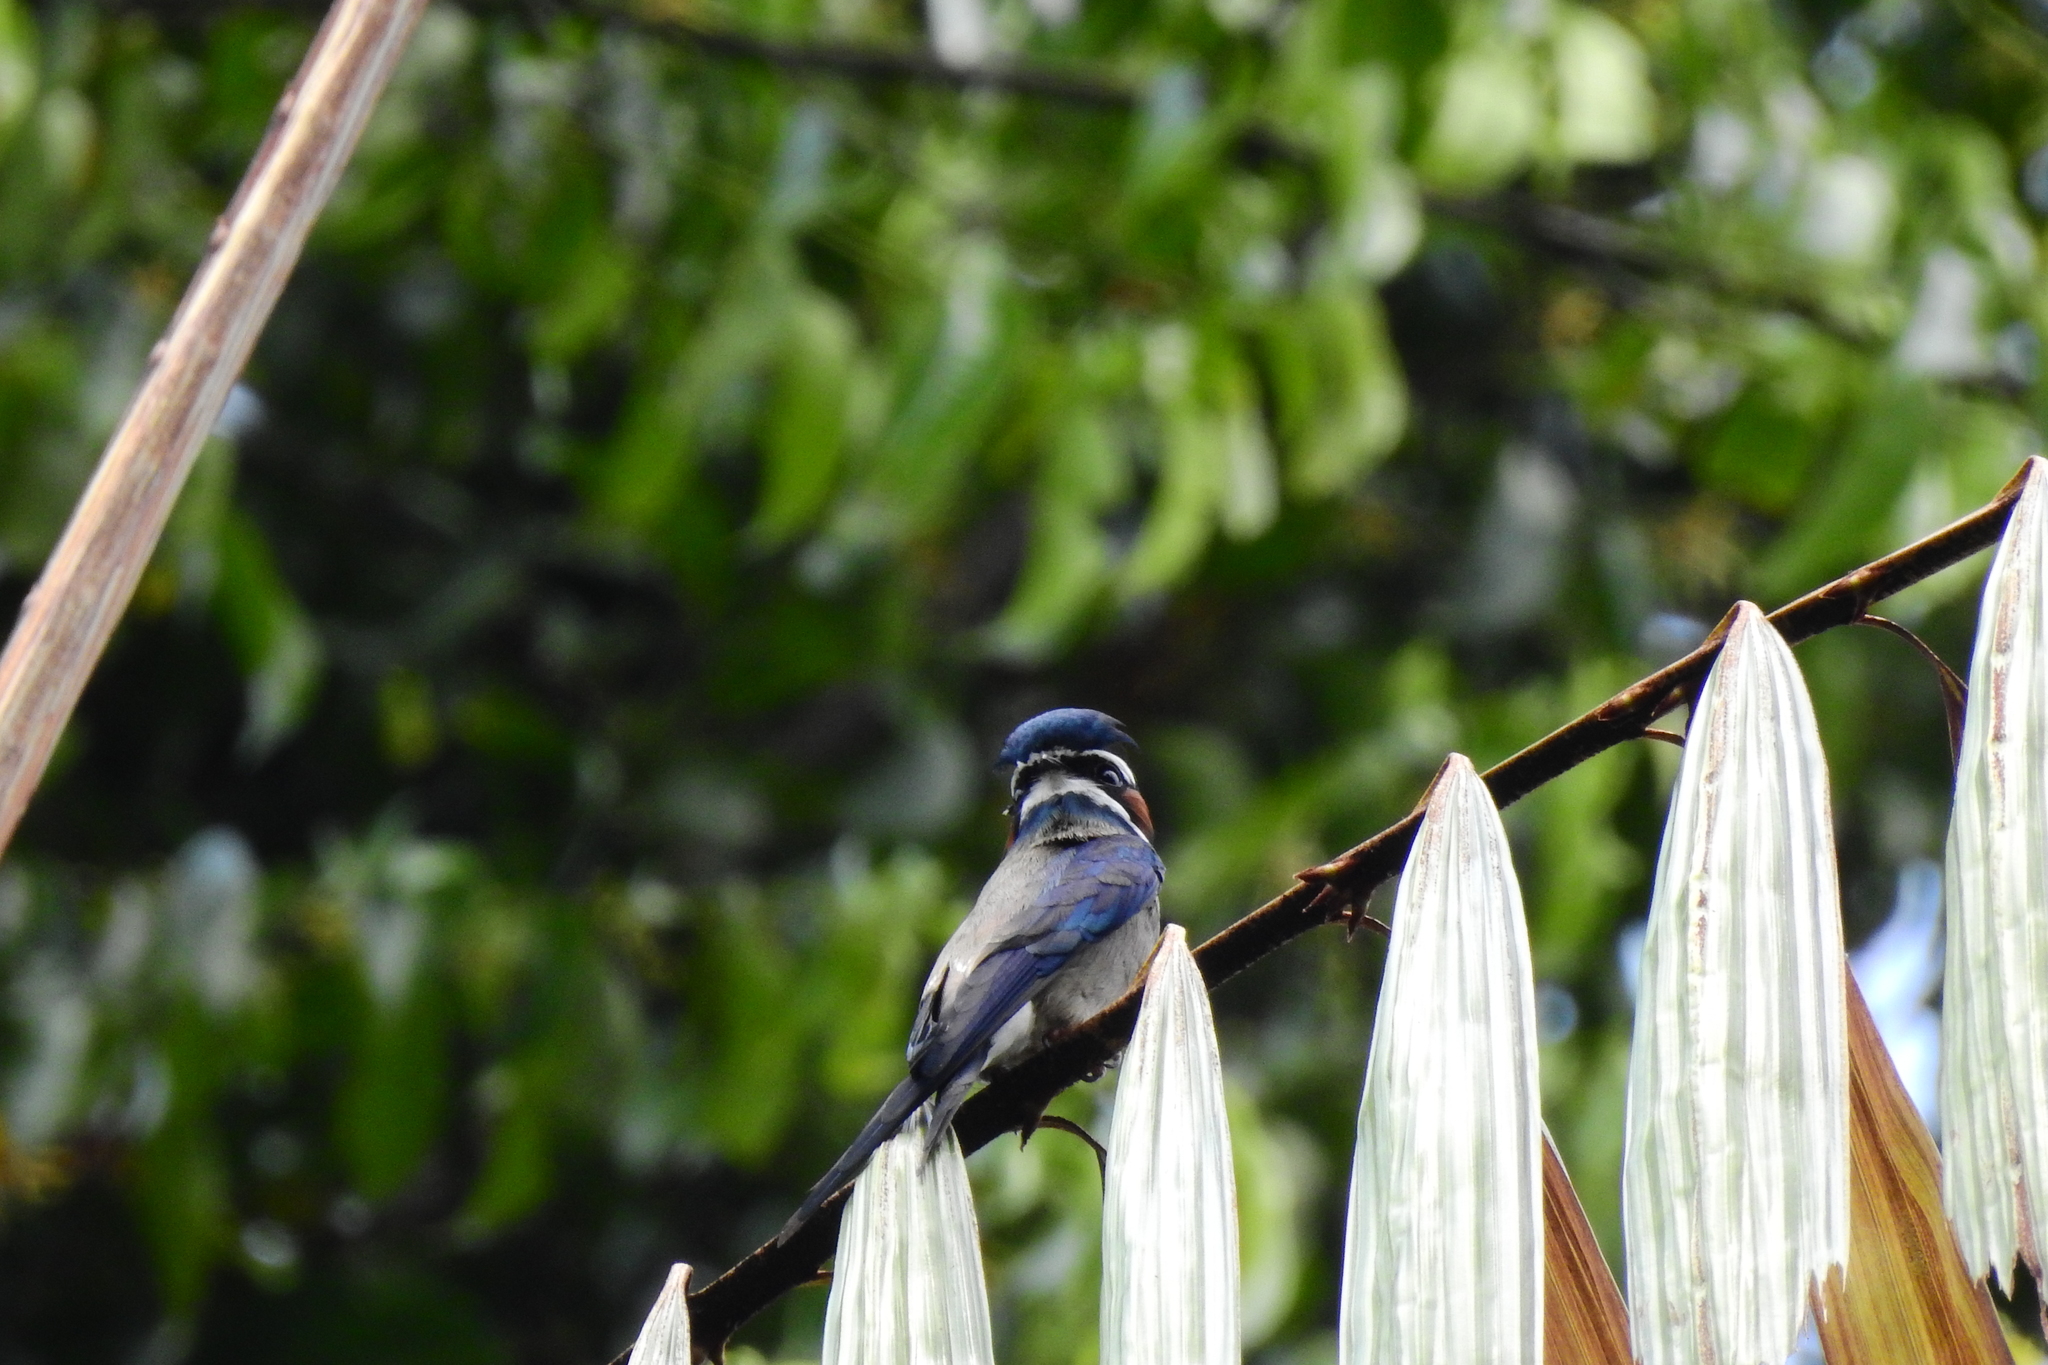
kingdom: Animalia
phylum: Chordata
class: Aves
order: Apodiformes
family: Hemiprocnidae
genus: Hemiprocne
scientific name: Hemiprocne comata
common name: Whiskered treeswift
